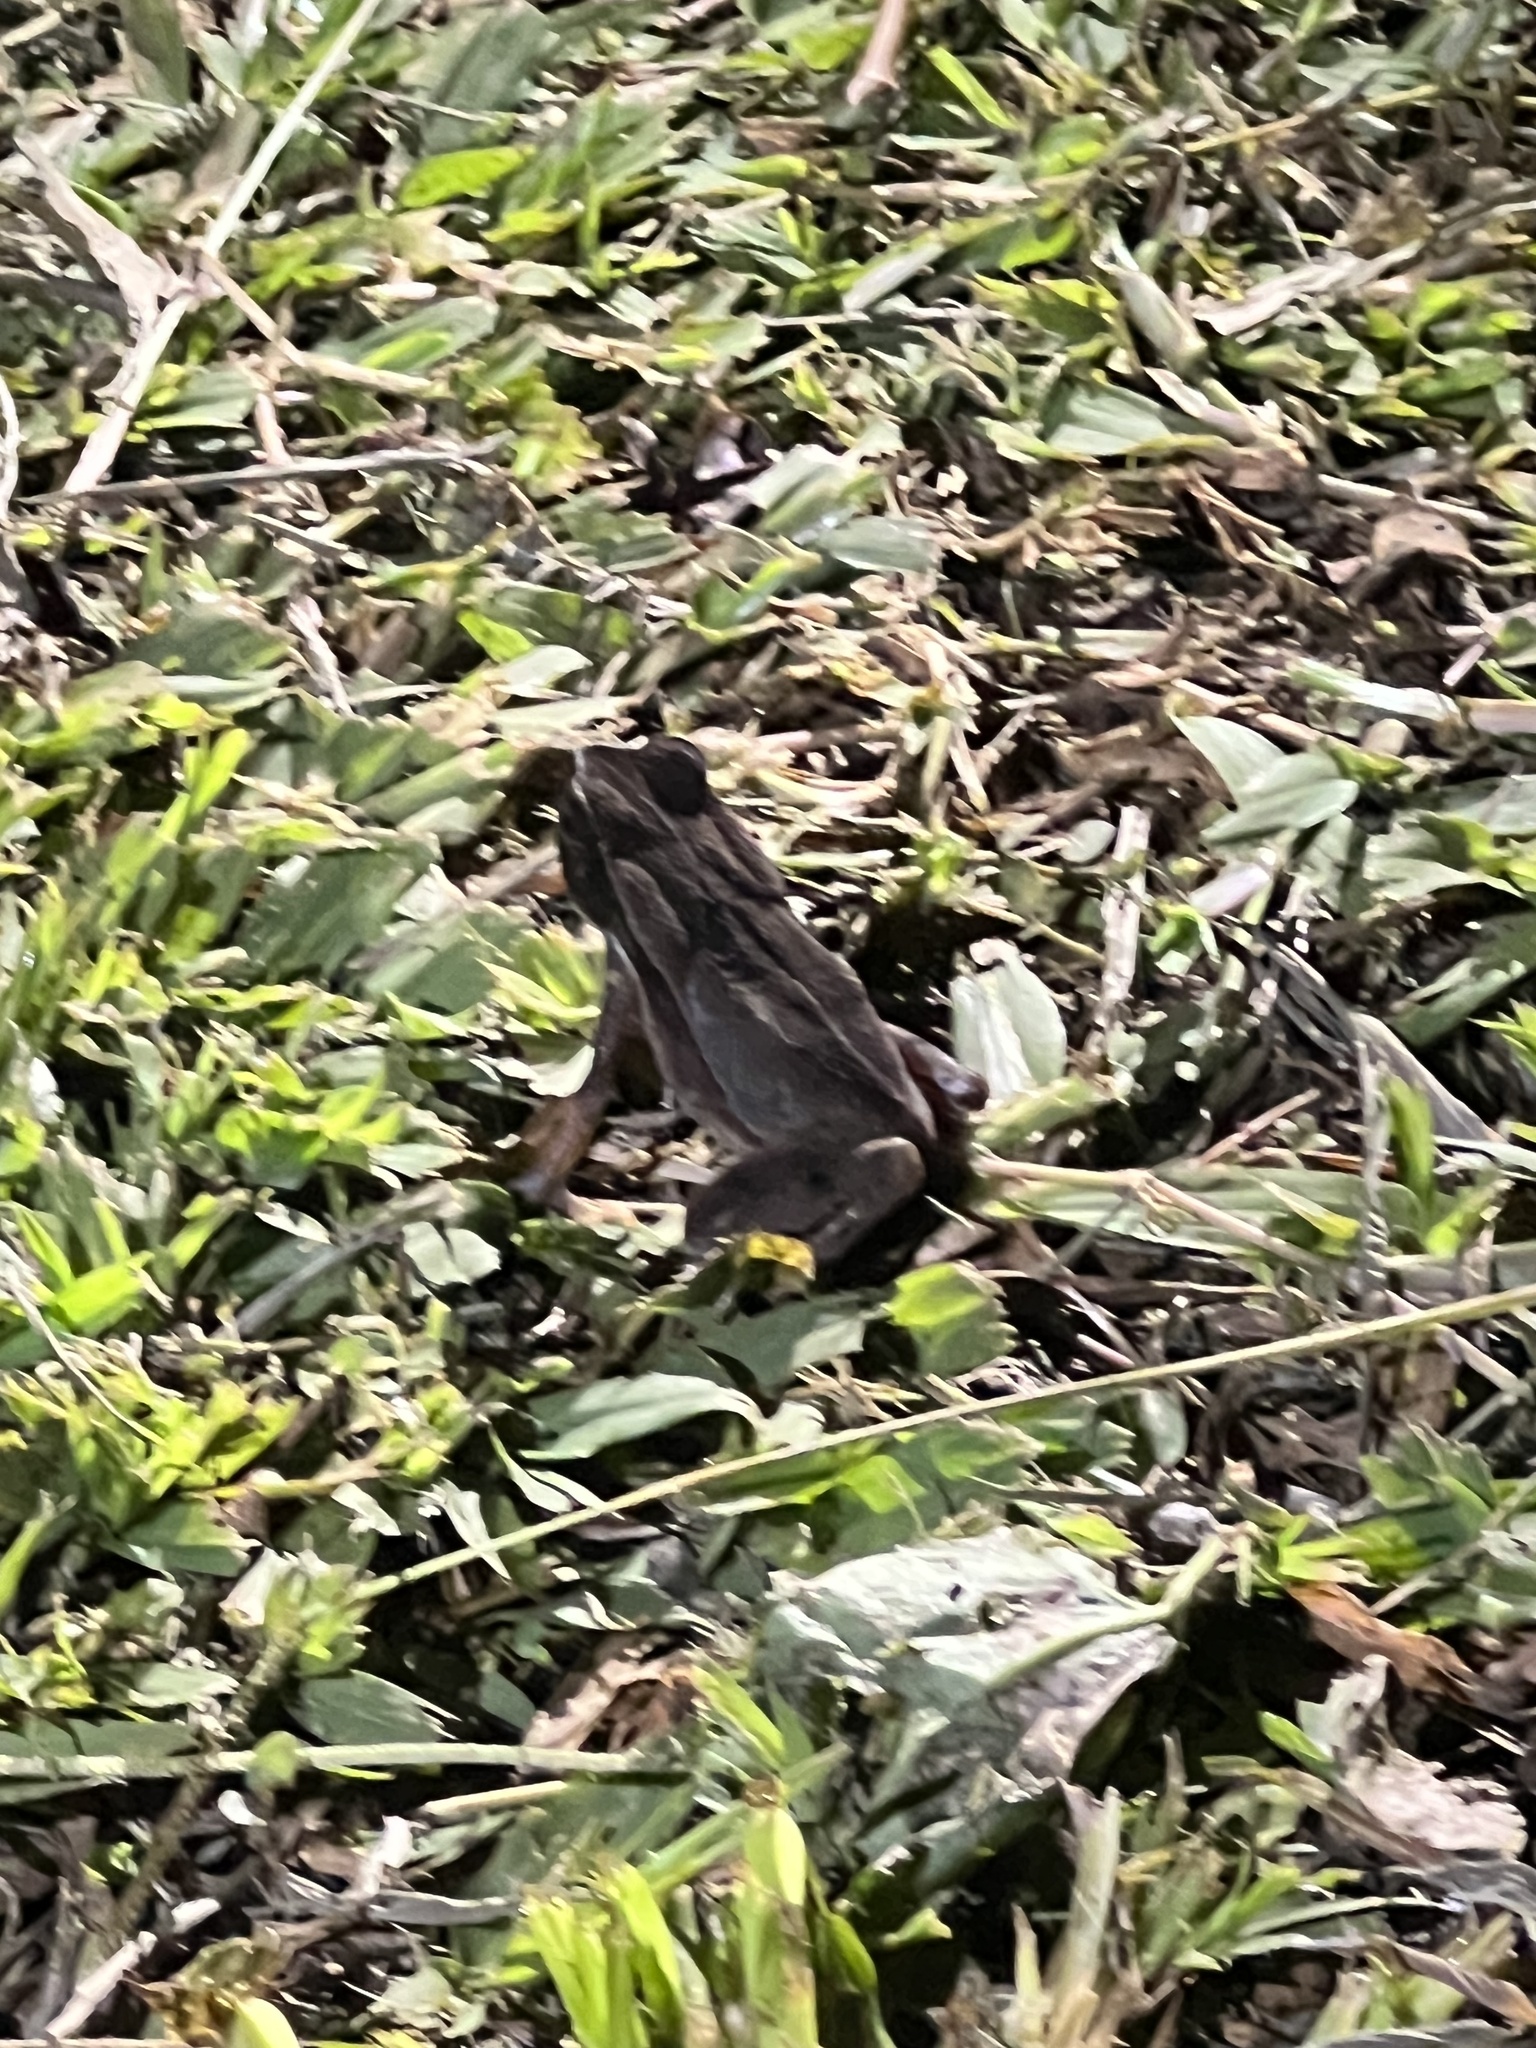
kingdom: Animalia
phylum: Chordata
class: Amphibia
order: Anura
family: Bufonidae
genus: Rhaebo
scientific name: Rhaebo haematiticus
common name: Truando toad
